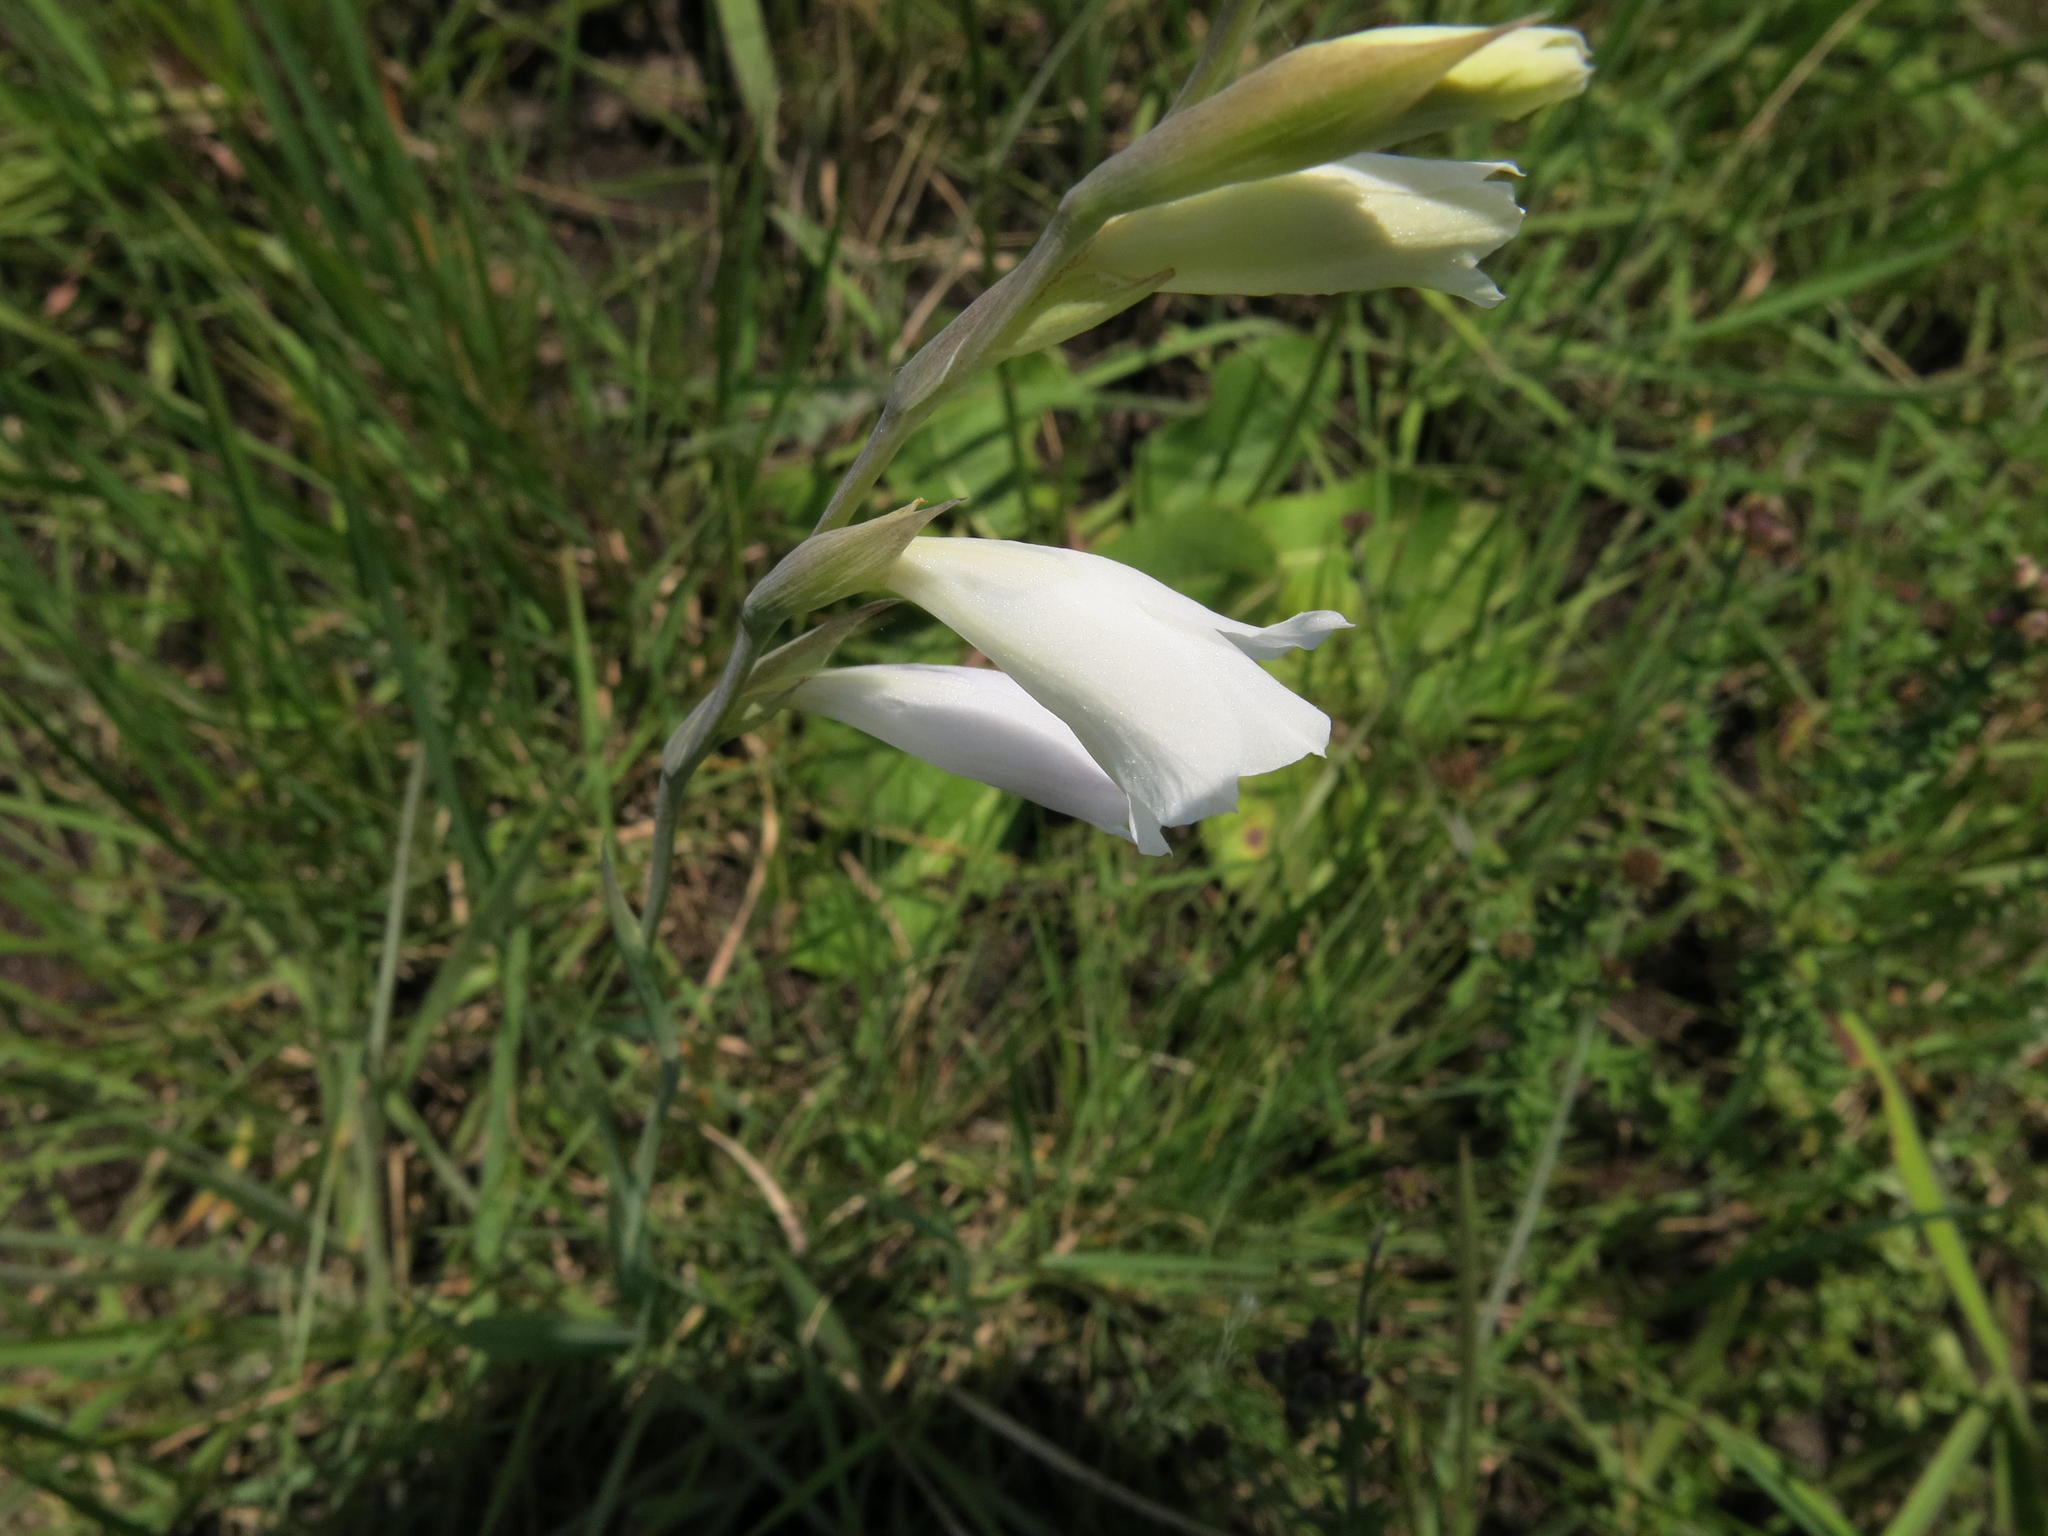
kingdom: Plantae
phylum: Tracheophyta
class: Liliopsida
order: Asparagales
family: Iridaceae
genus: Gladiolus
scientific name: Gladiolus appendiculatus
